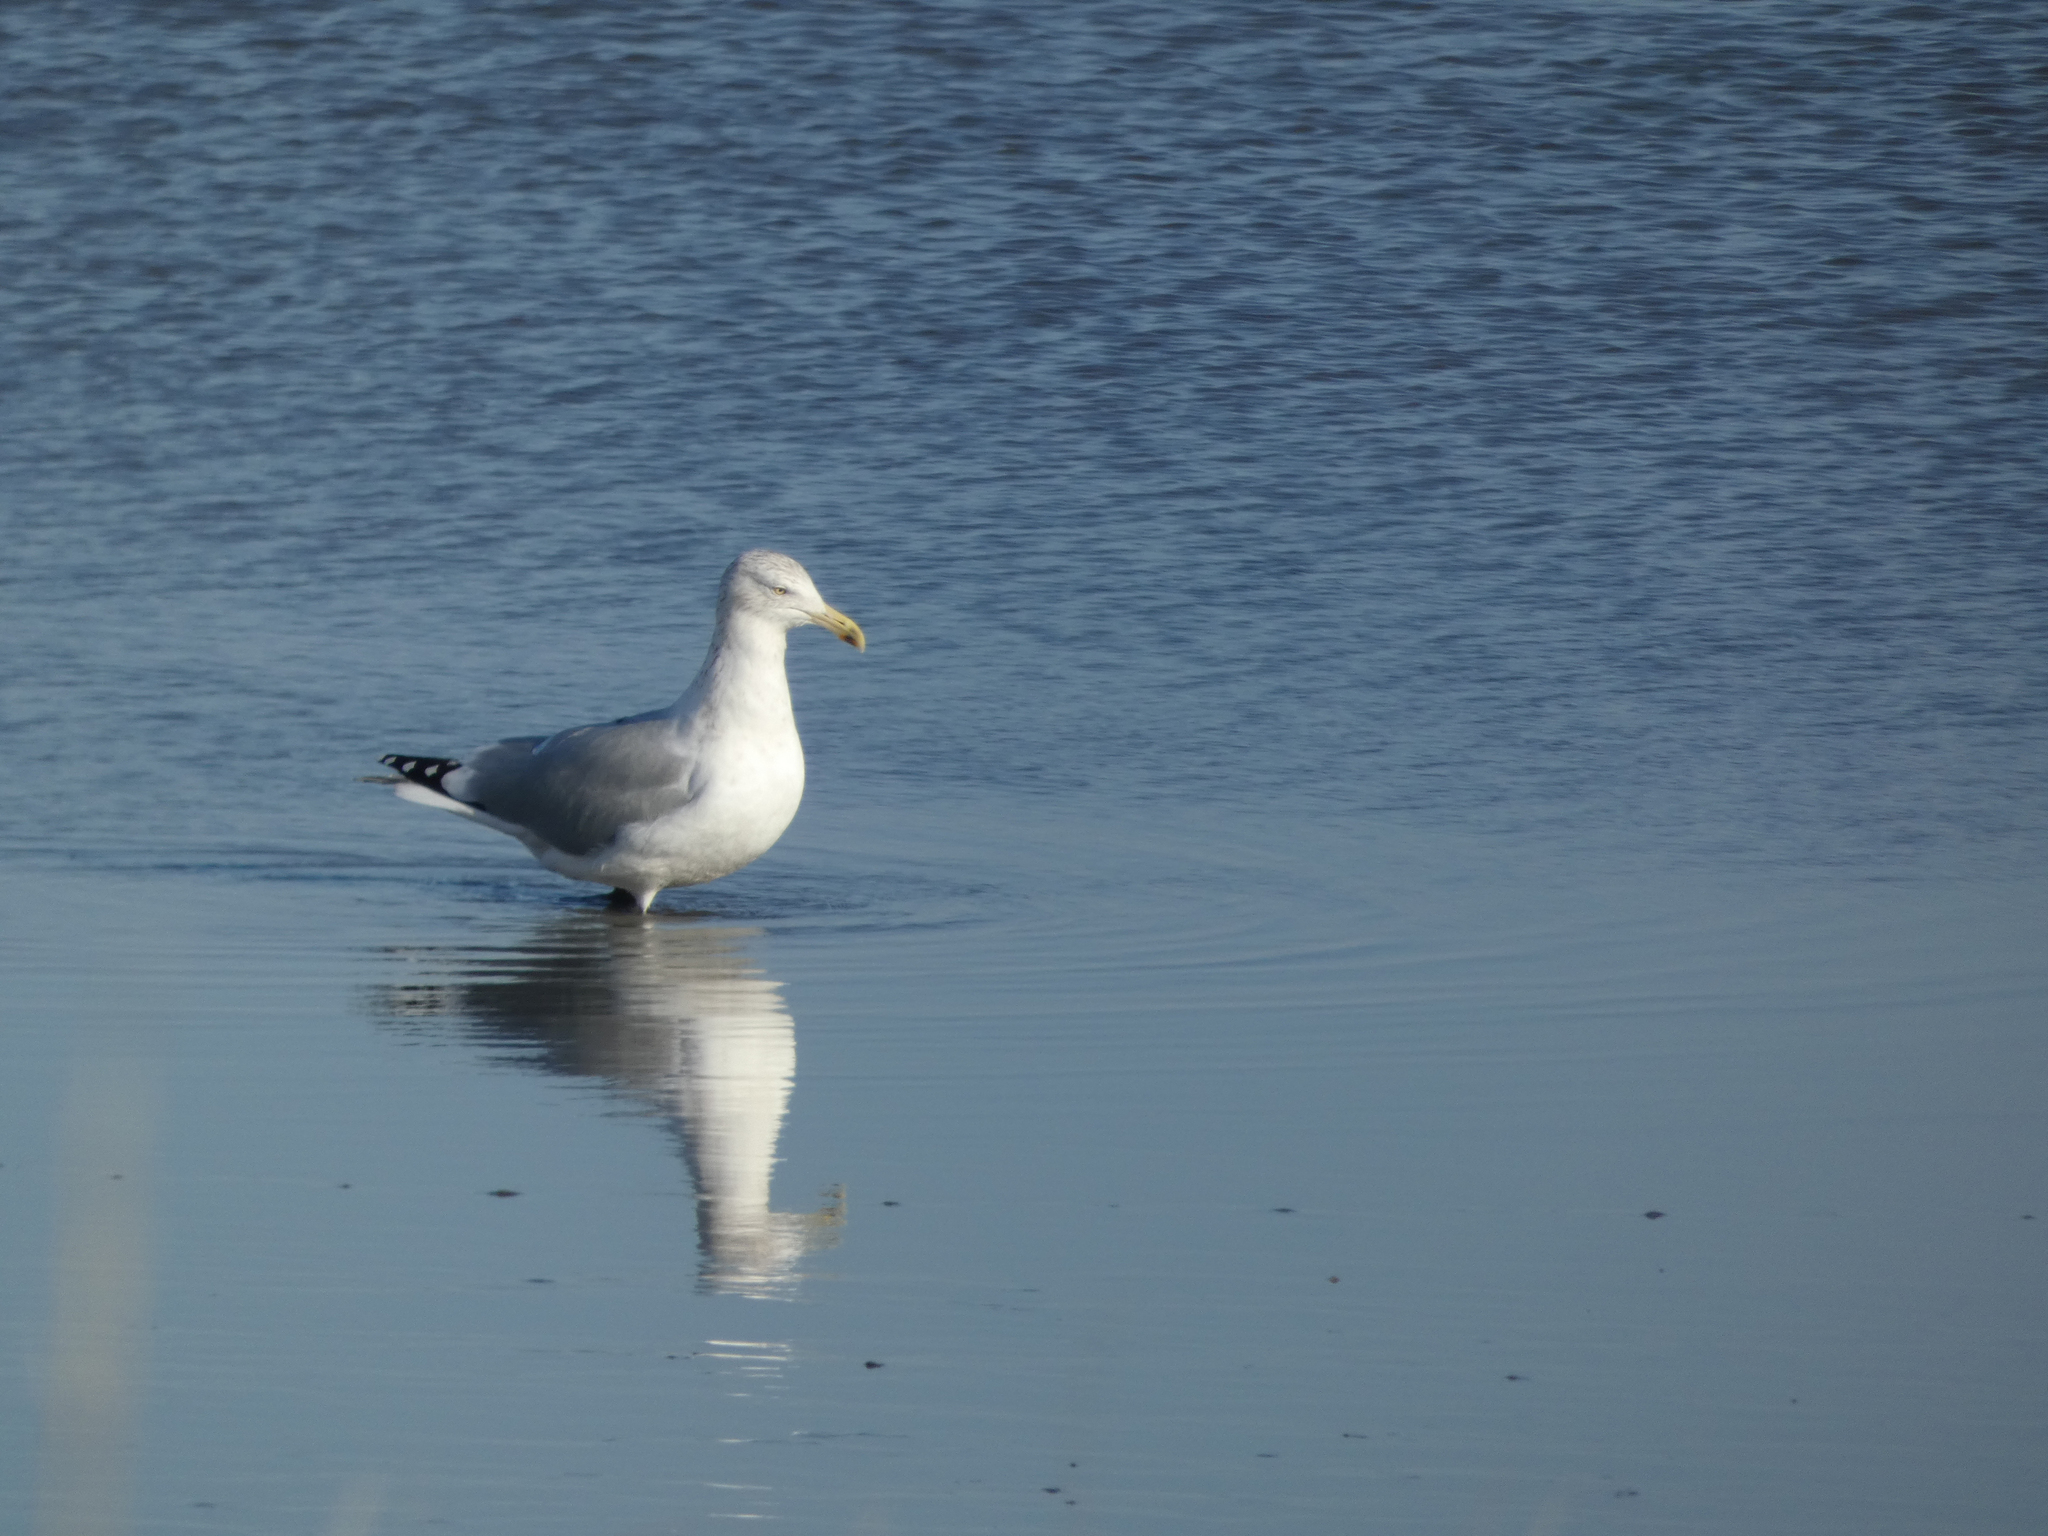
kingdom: Animalia
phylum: Chordata
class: Aves
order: Charadriiformes
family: Laridae
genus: Larus
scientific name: Larus argentatus
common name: Herring gull
